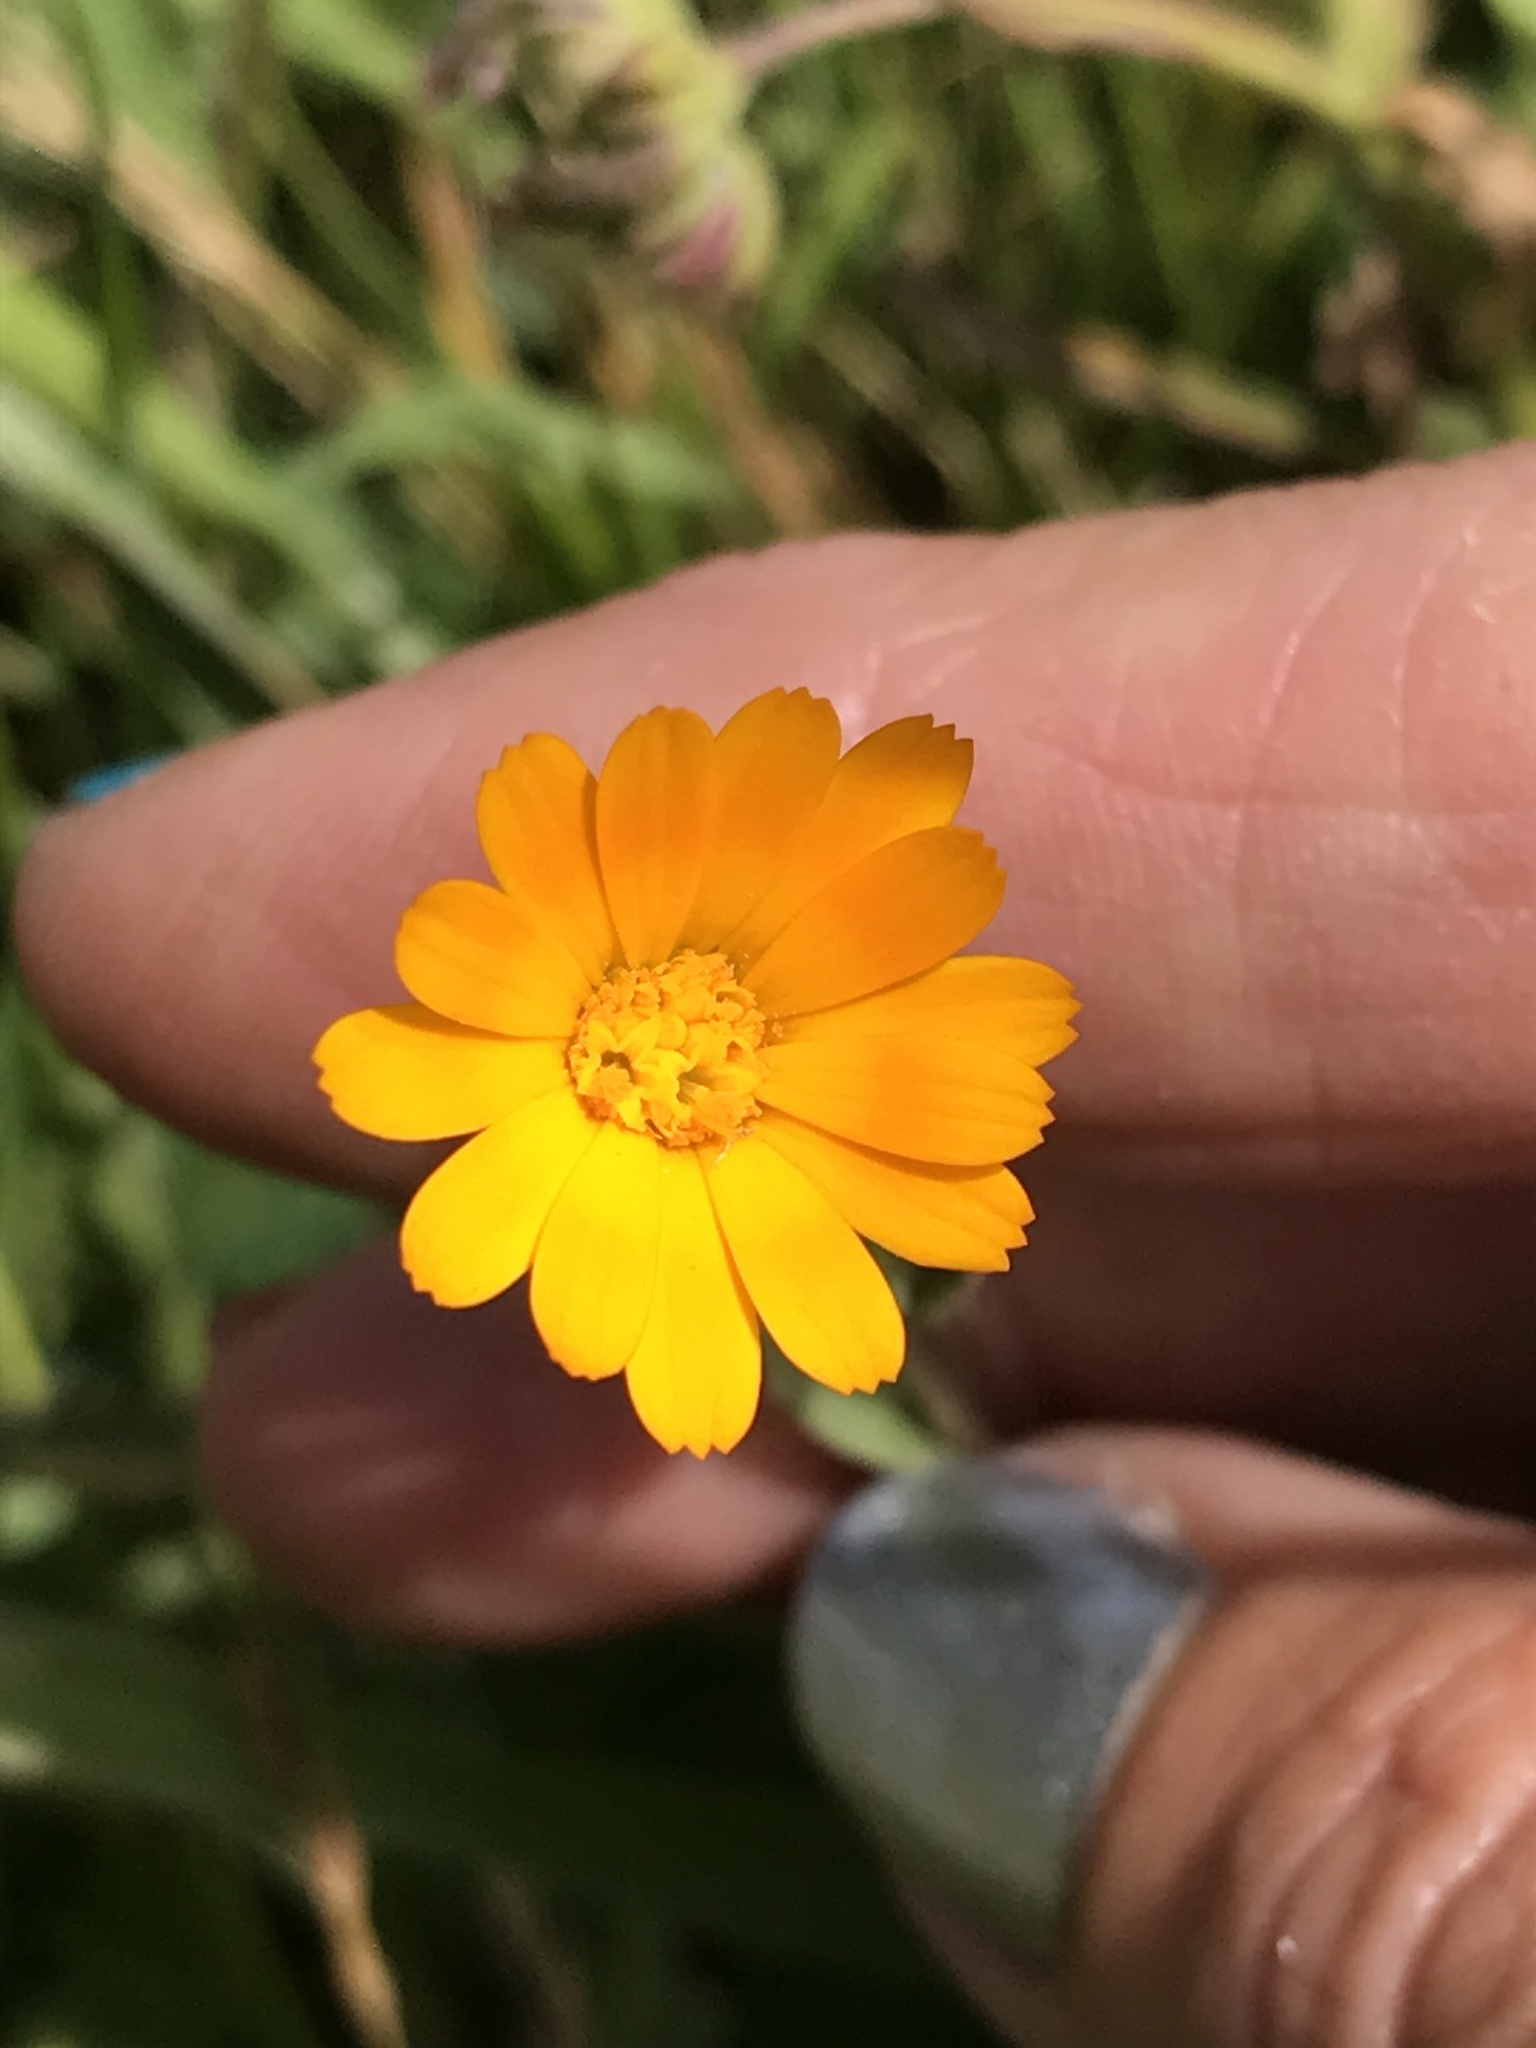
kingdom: Plantae
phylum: Tracheophyta
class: Magnoliopsida
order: Asterales
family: Asteraceae
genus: Calendula
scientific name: Calendula arvensis
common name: Field marigold
